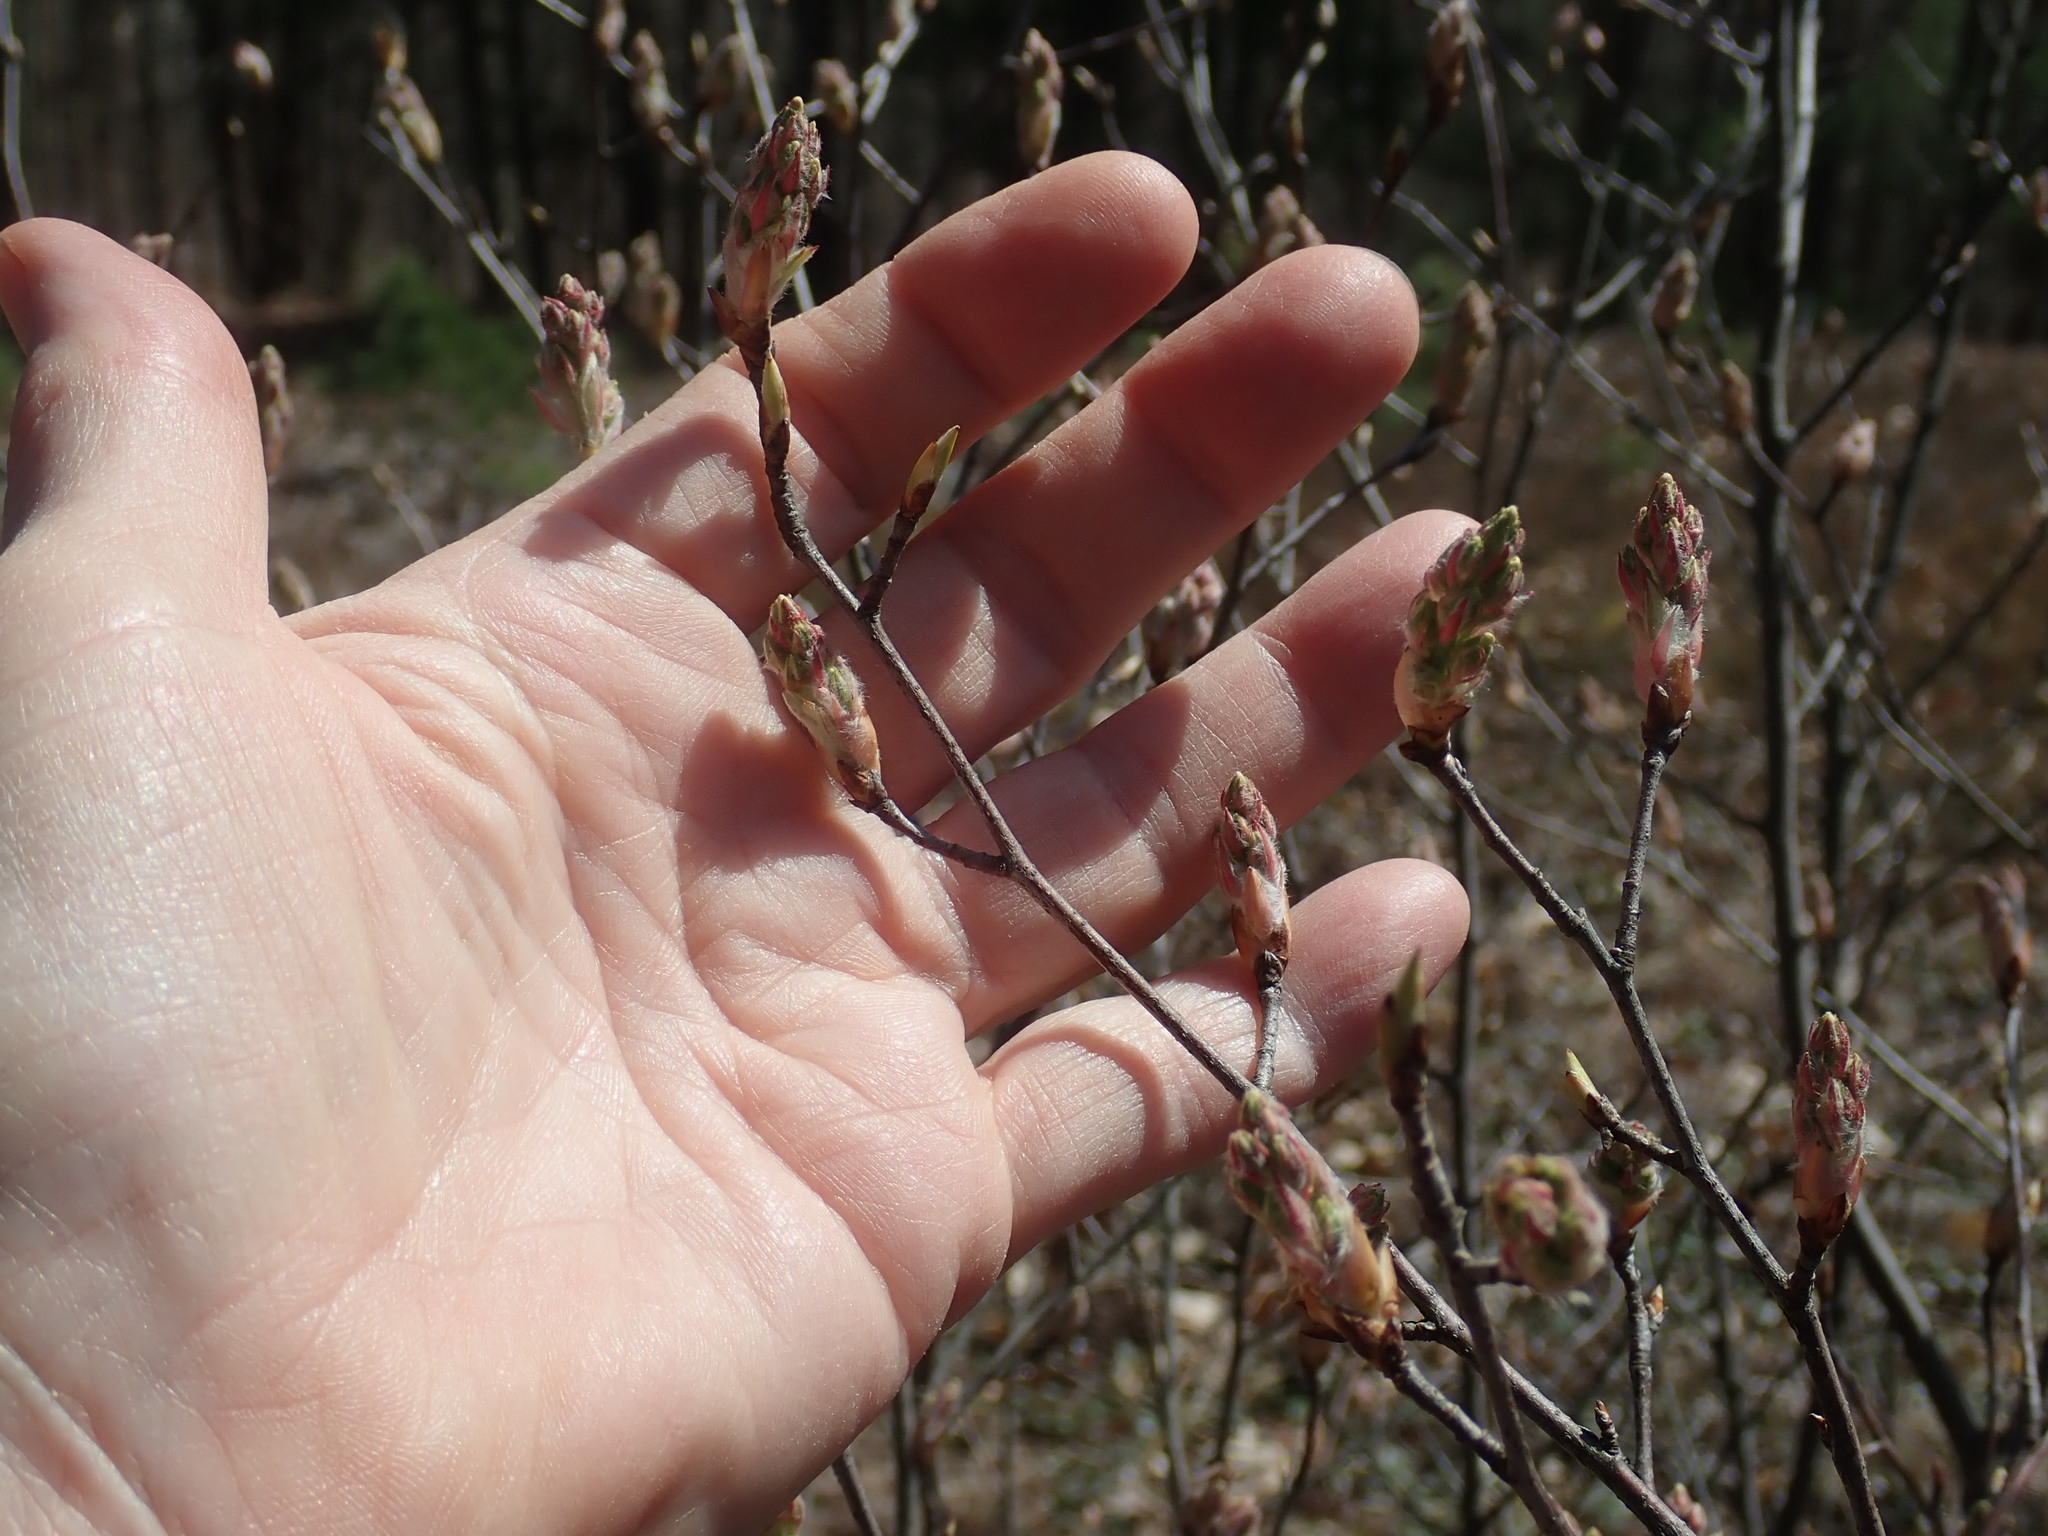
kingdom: Plantae
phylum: Tracheophyta
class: Magnoliopsida
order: Rosales
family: Rosaceae
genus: Amelanchier
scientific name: Amelanchier
